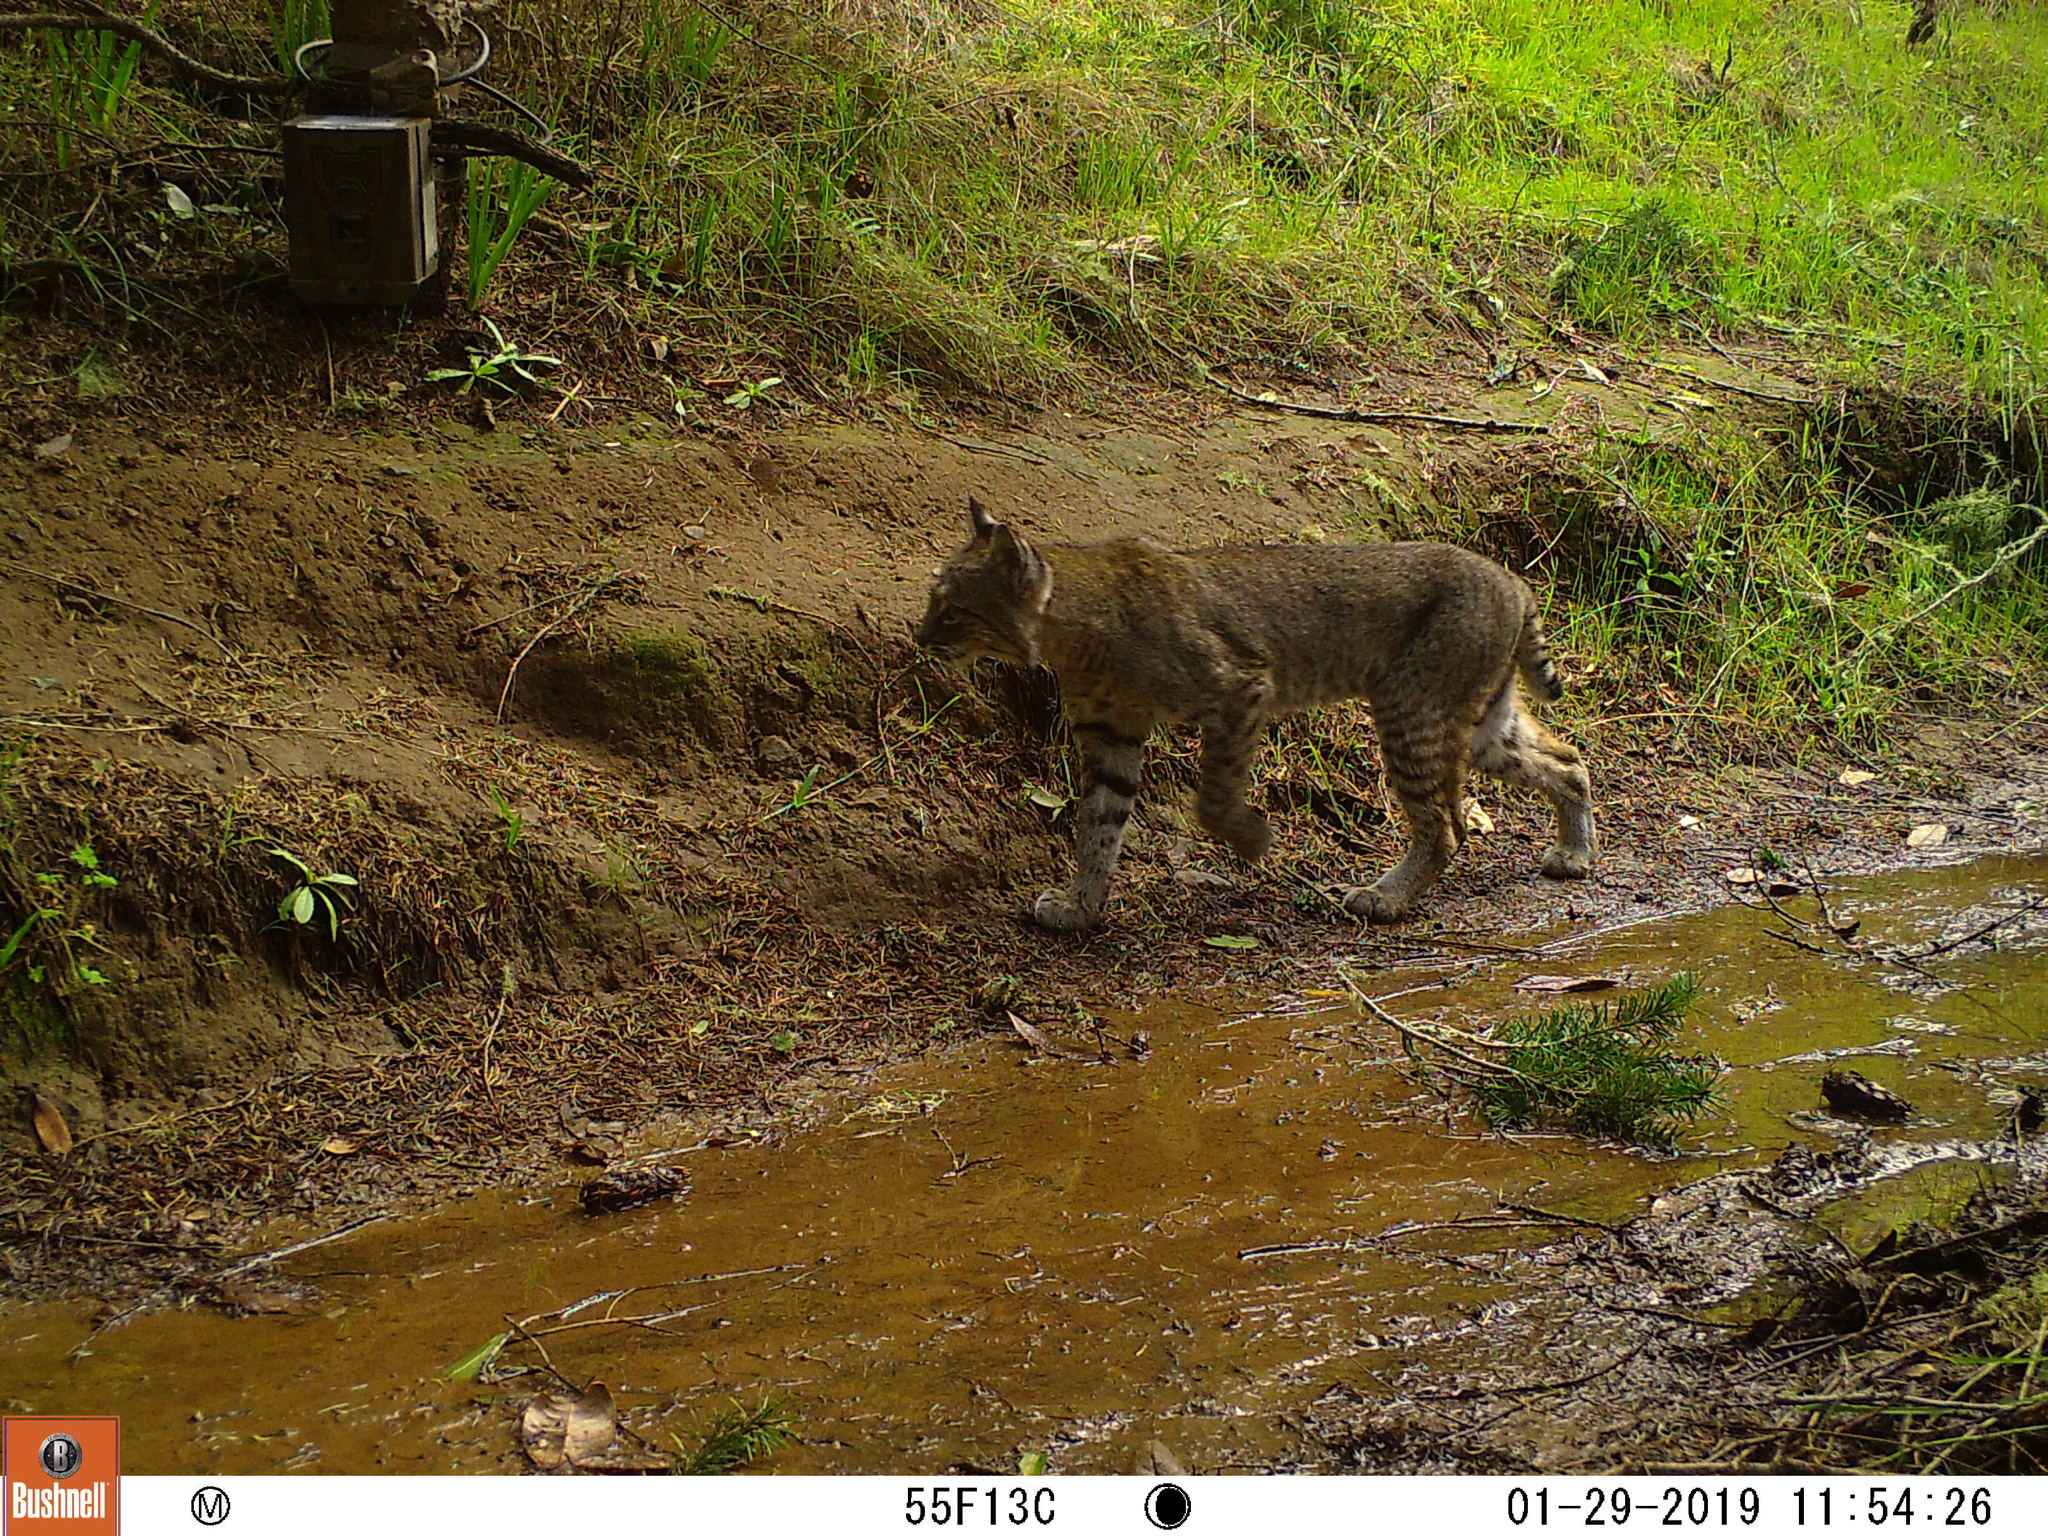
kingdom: Animalia
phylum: Chordata
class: Mammalia
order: Carnivora
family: Felidae
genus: Lynx
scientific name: Lynx rufus
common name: Bobcat
